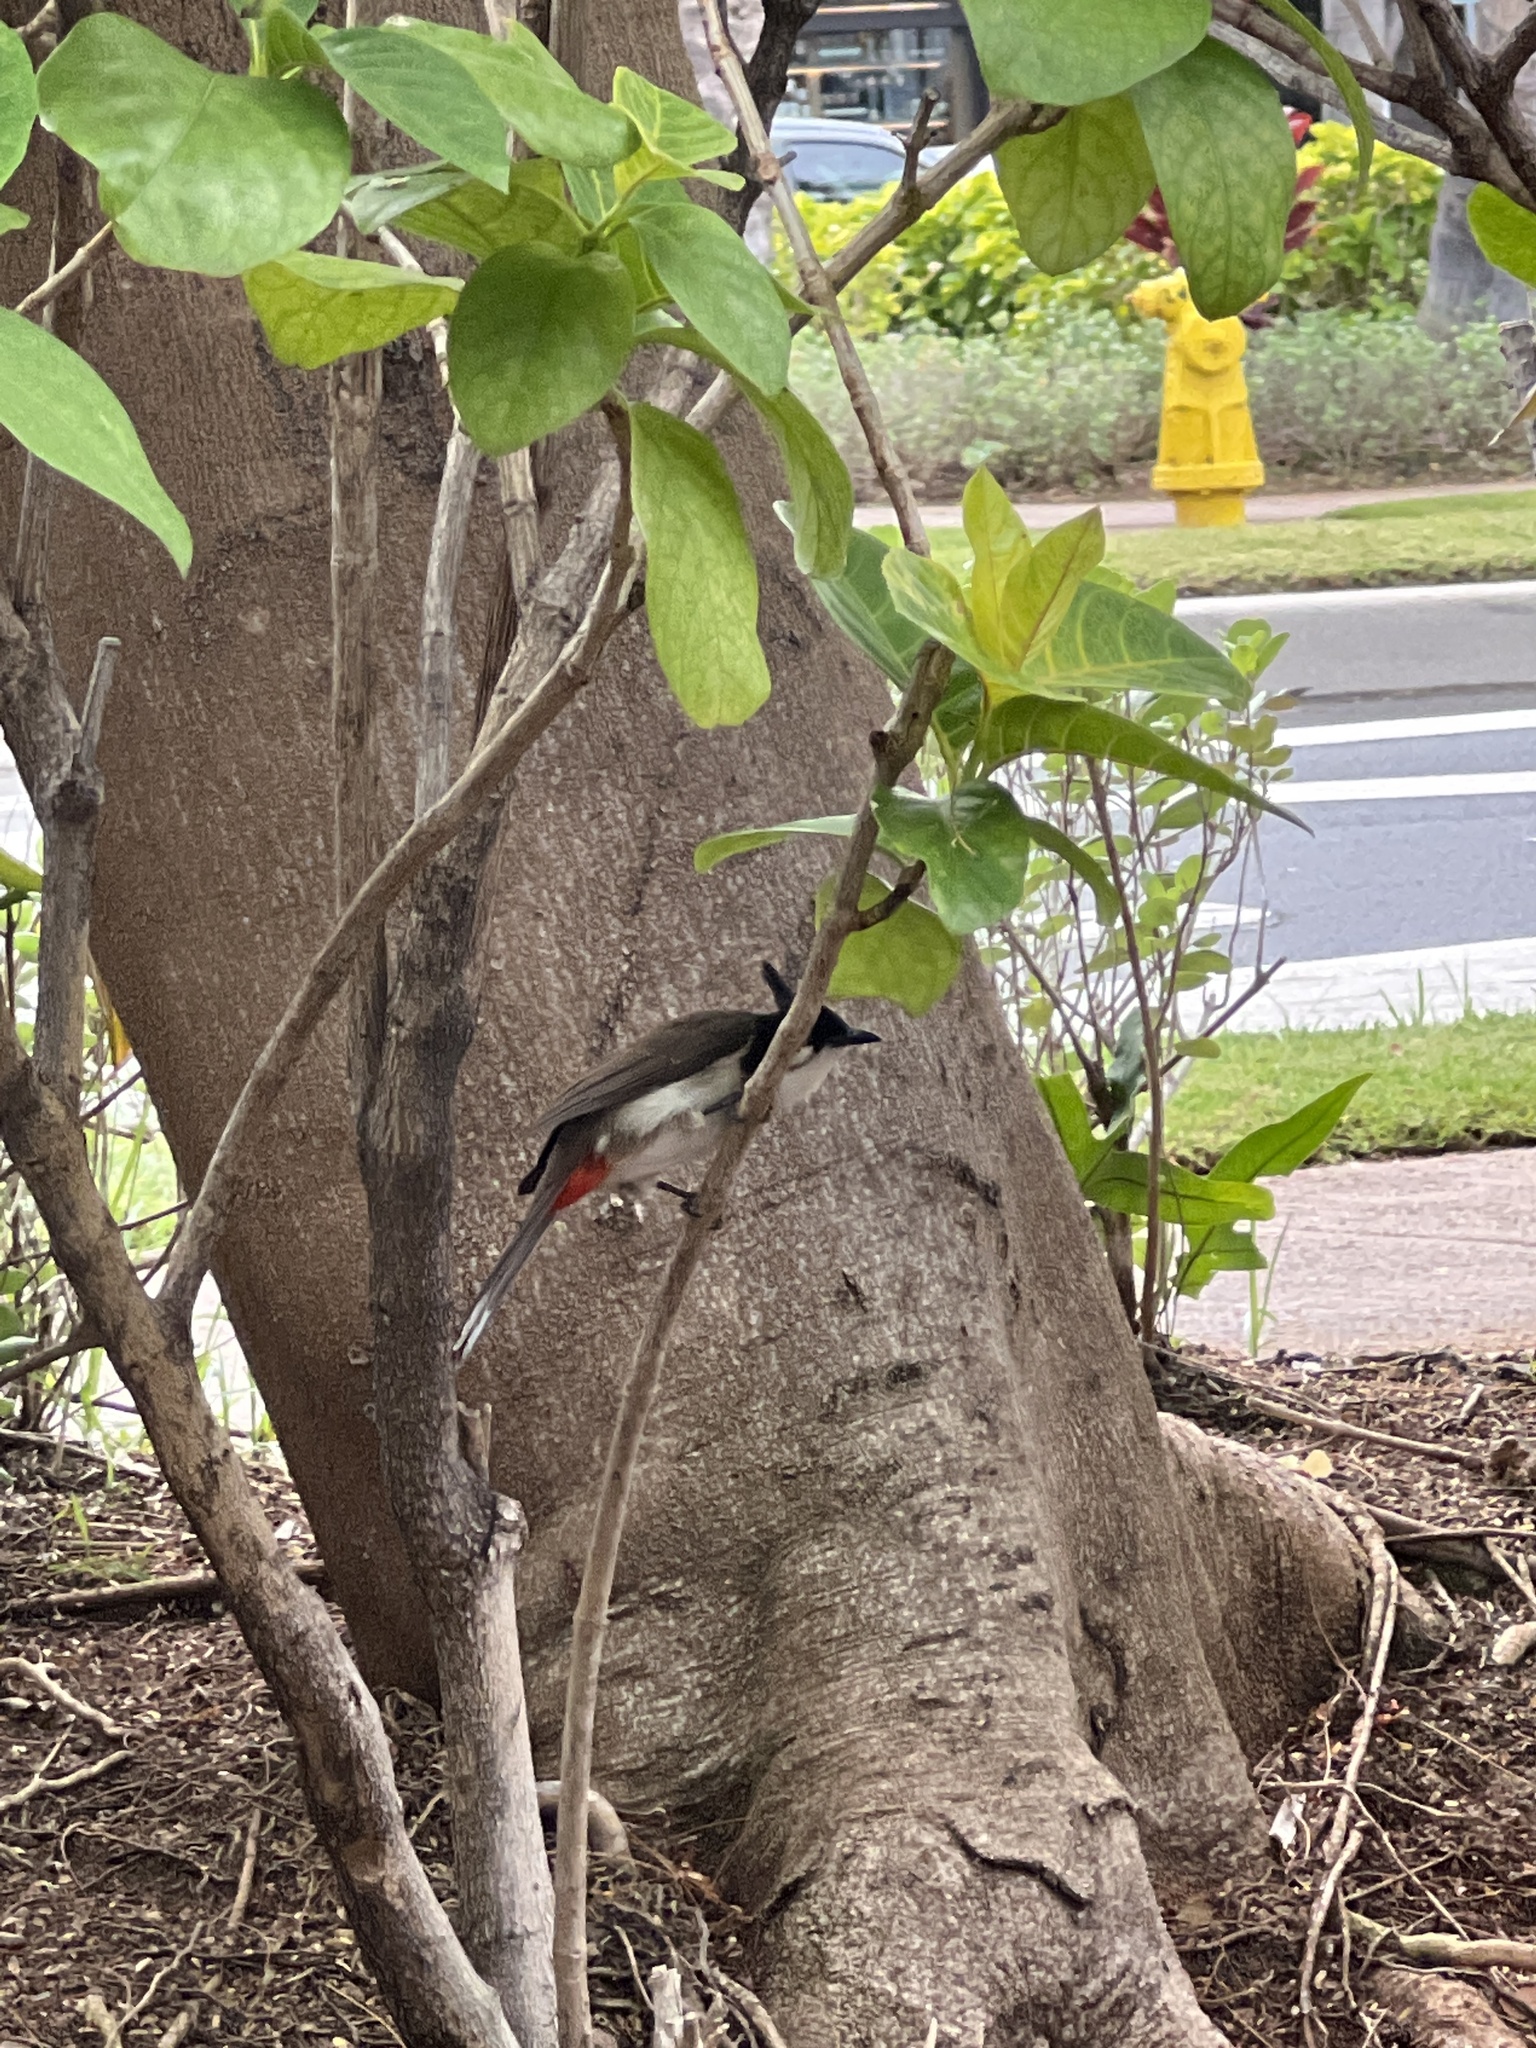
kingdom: Animalia
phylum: Chordata
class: Aves
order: Passeriformes
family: Pycnonotidae
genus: Pycnonotus
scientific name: Pycnonotus jocosus
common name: Red-whiskered bulbul
